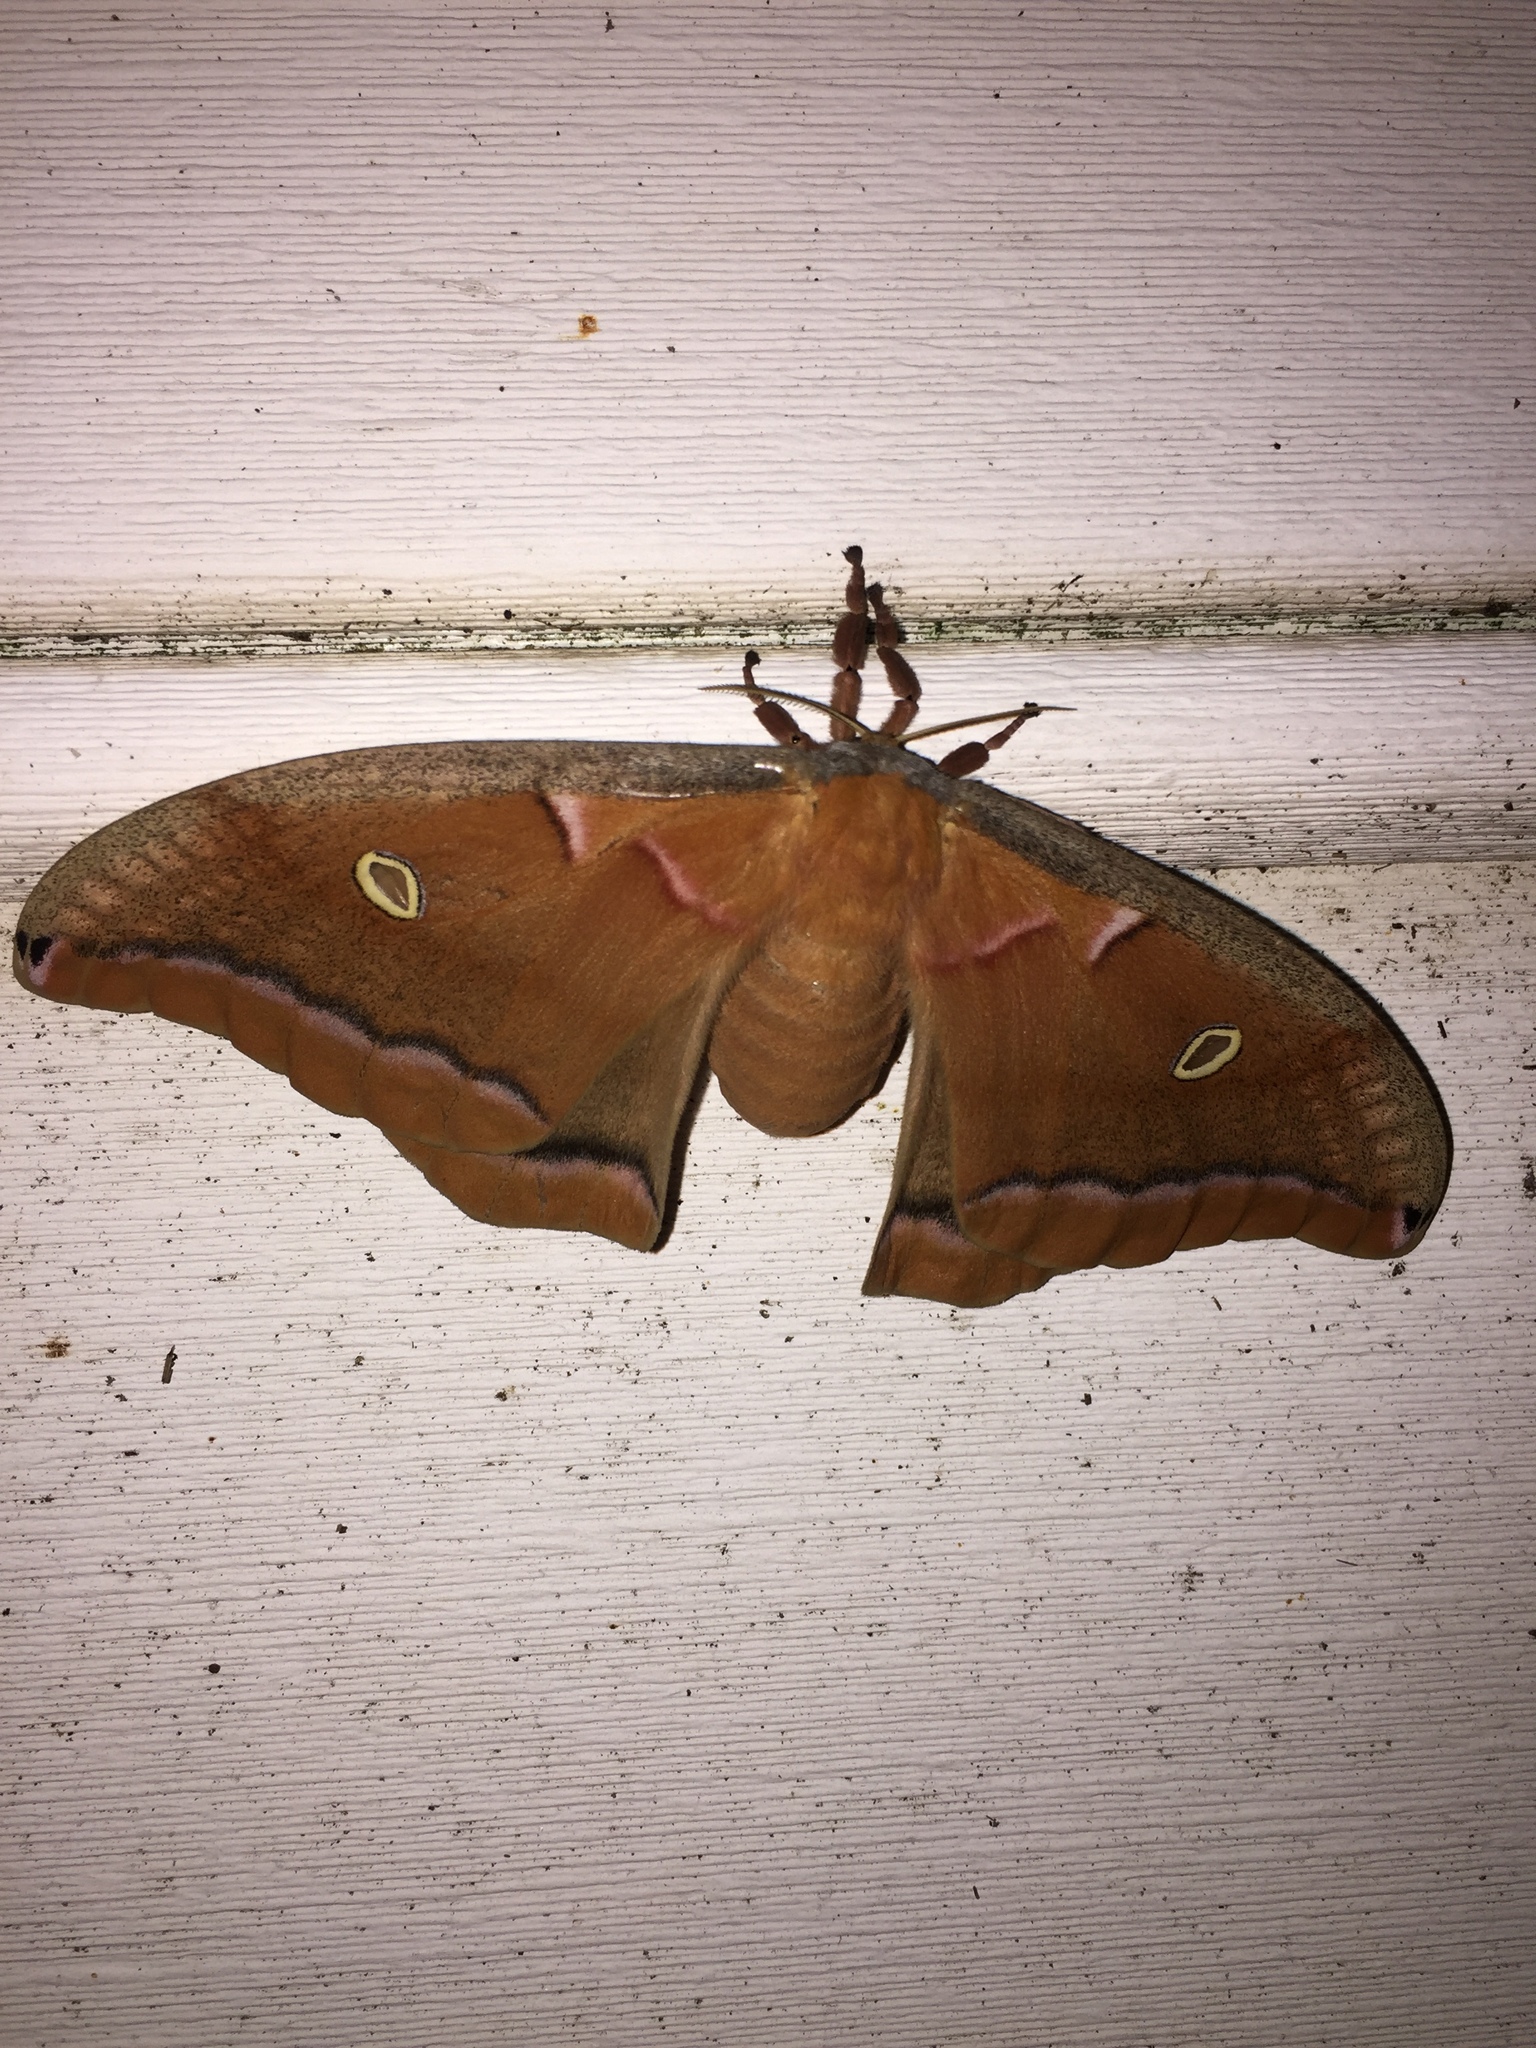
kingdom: Animalia
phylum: Arthropoda
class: Insecta
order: Lepidoptera
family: Saturniidae
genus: Antheraea
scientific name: Antheraea polyphemus
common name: Polyphemus moth
